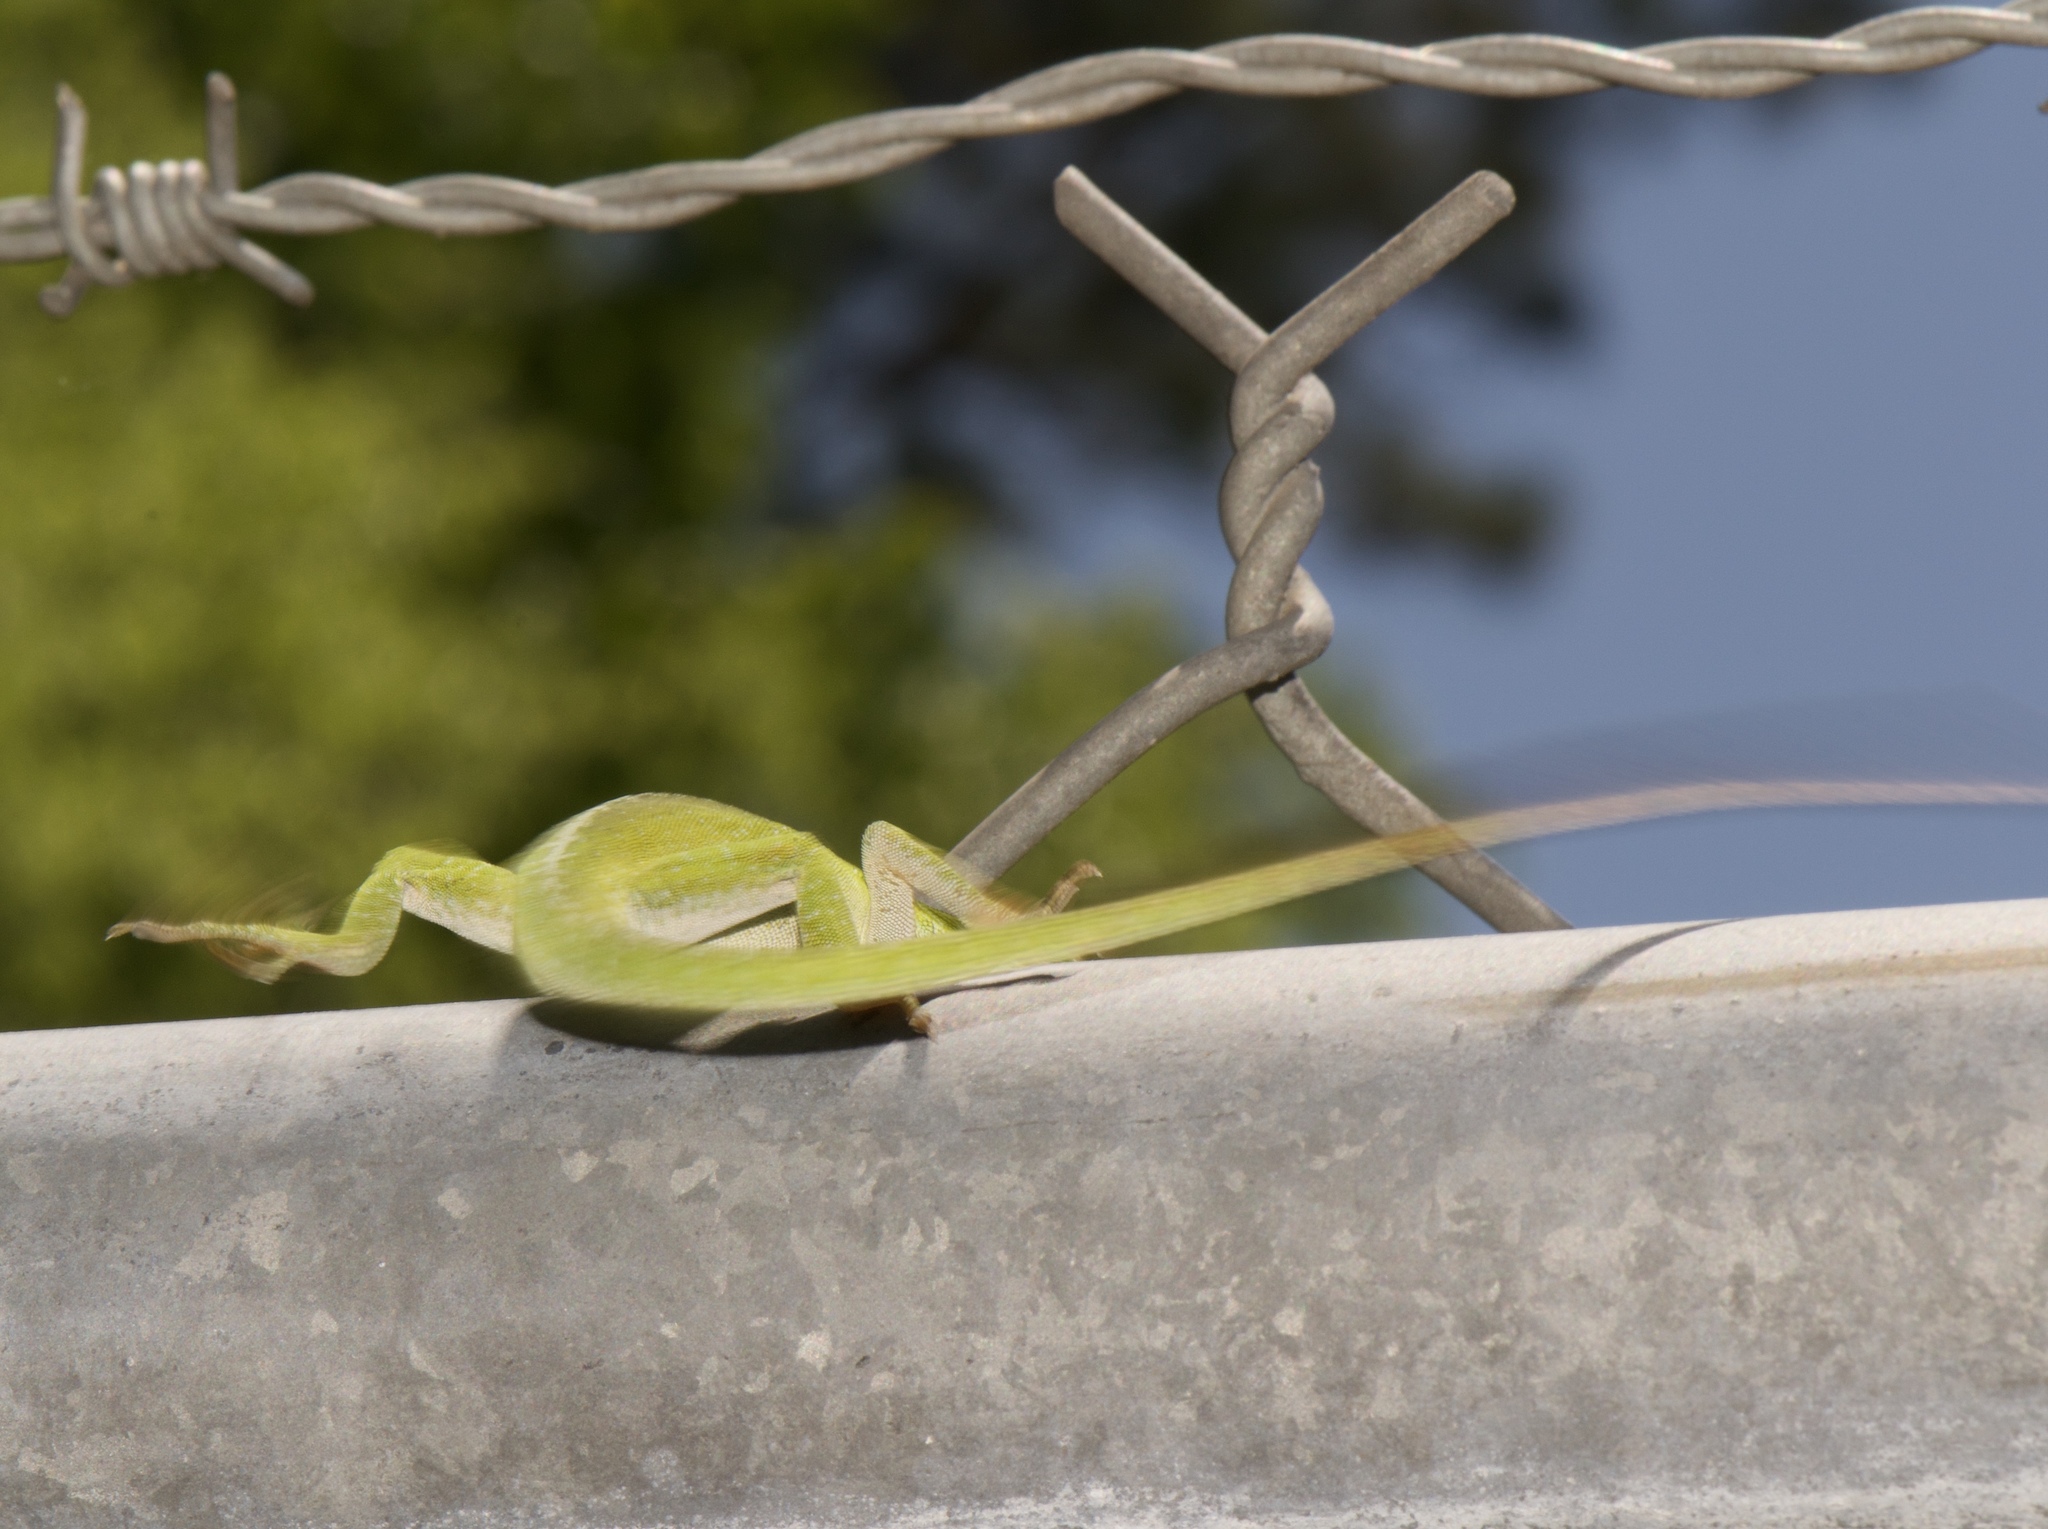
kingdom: Animalia
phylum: Chordata
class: Squamata
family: Dactyloidae
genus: Anolis
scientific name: Anolis carolinensis
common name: Green anole
